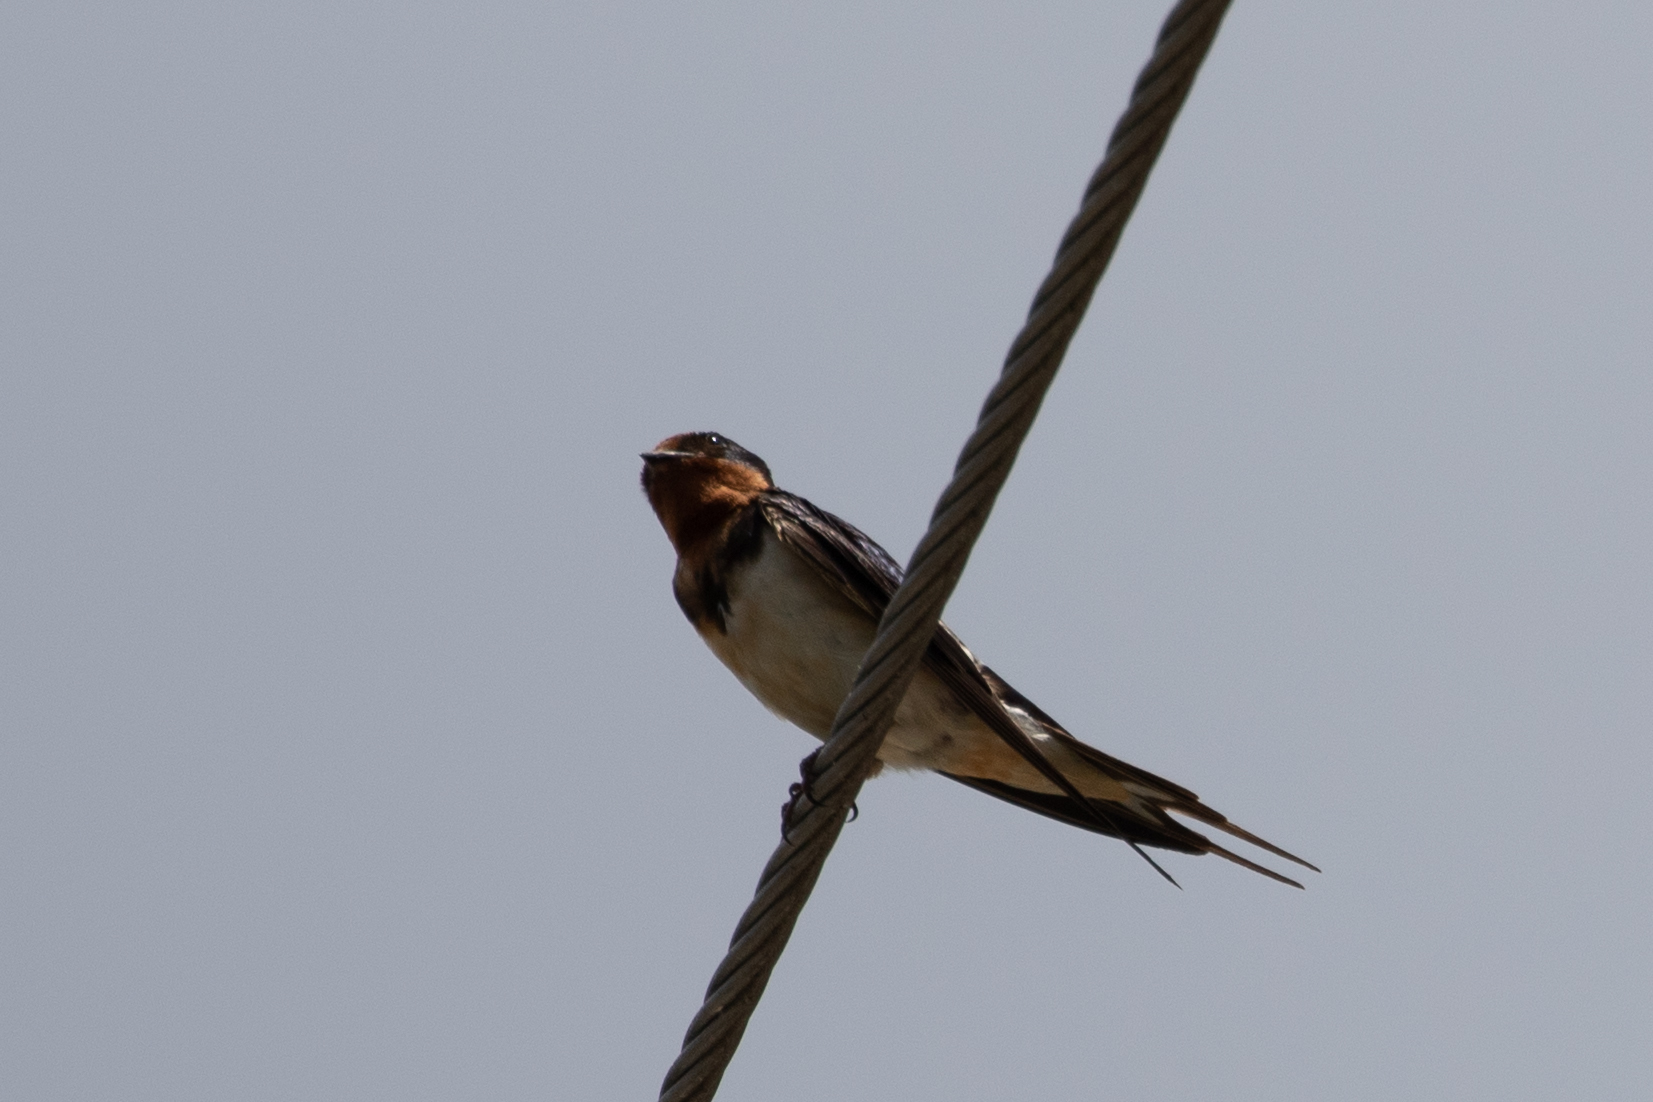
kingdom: Animalia
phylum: Chordata
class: Aves
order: Passeriformes
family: Hirundinidae
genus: Hirundo
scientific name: Hirundo rustica
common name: Barn swallow
